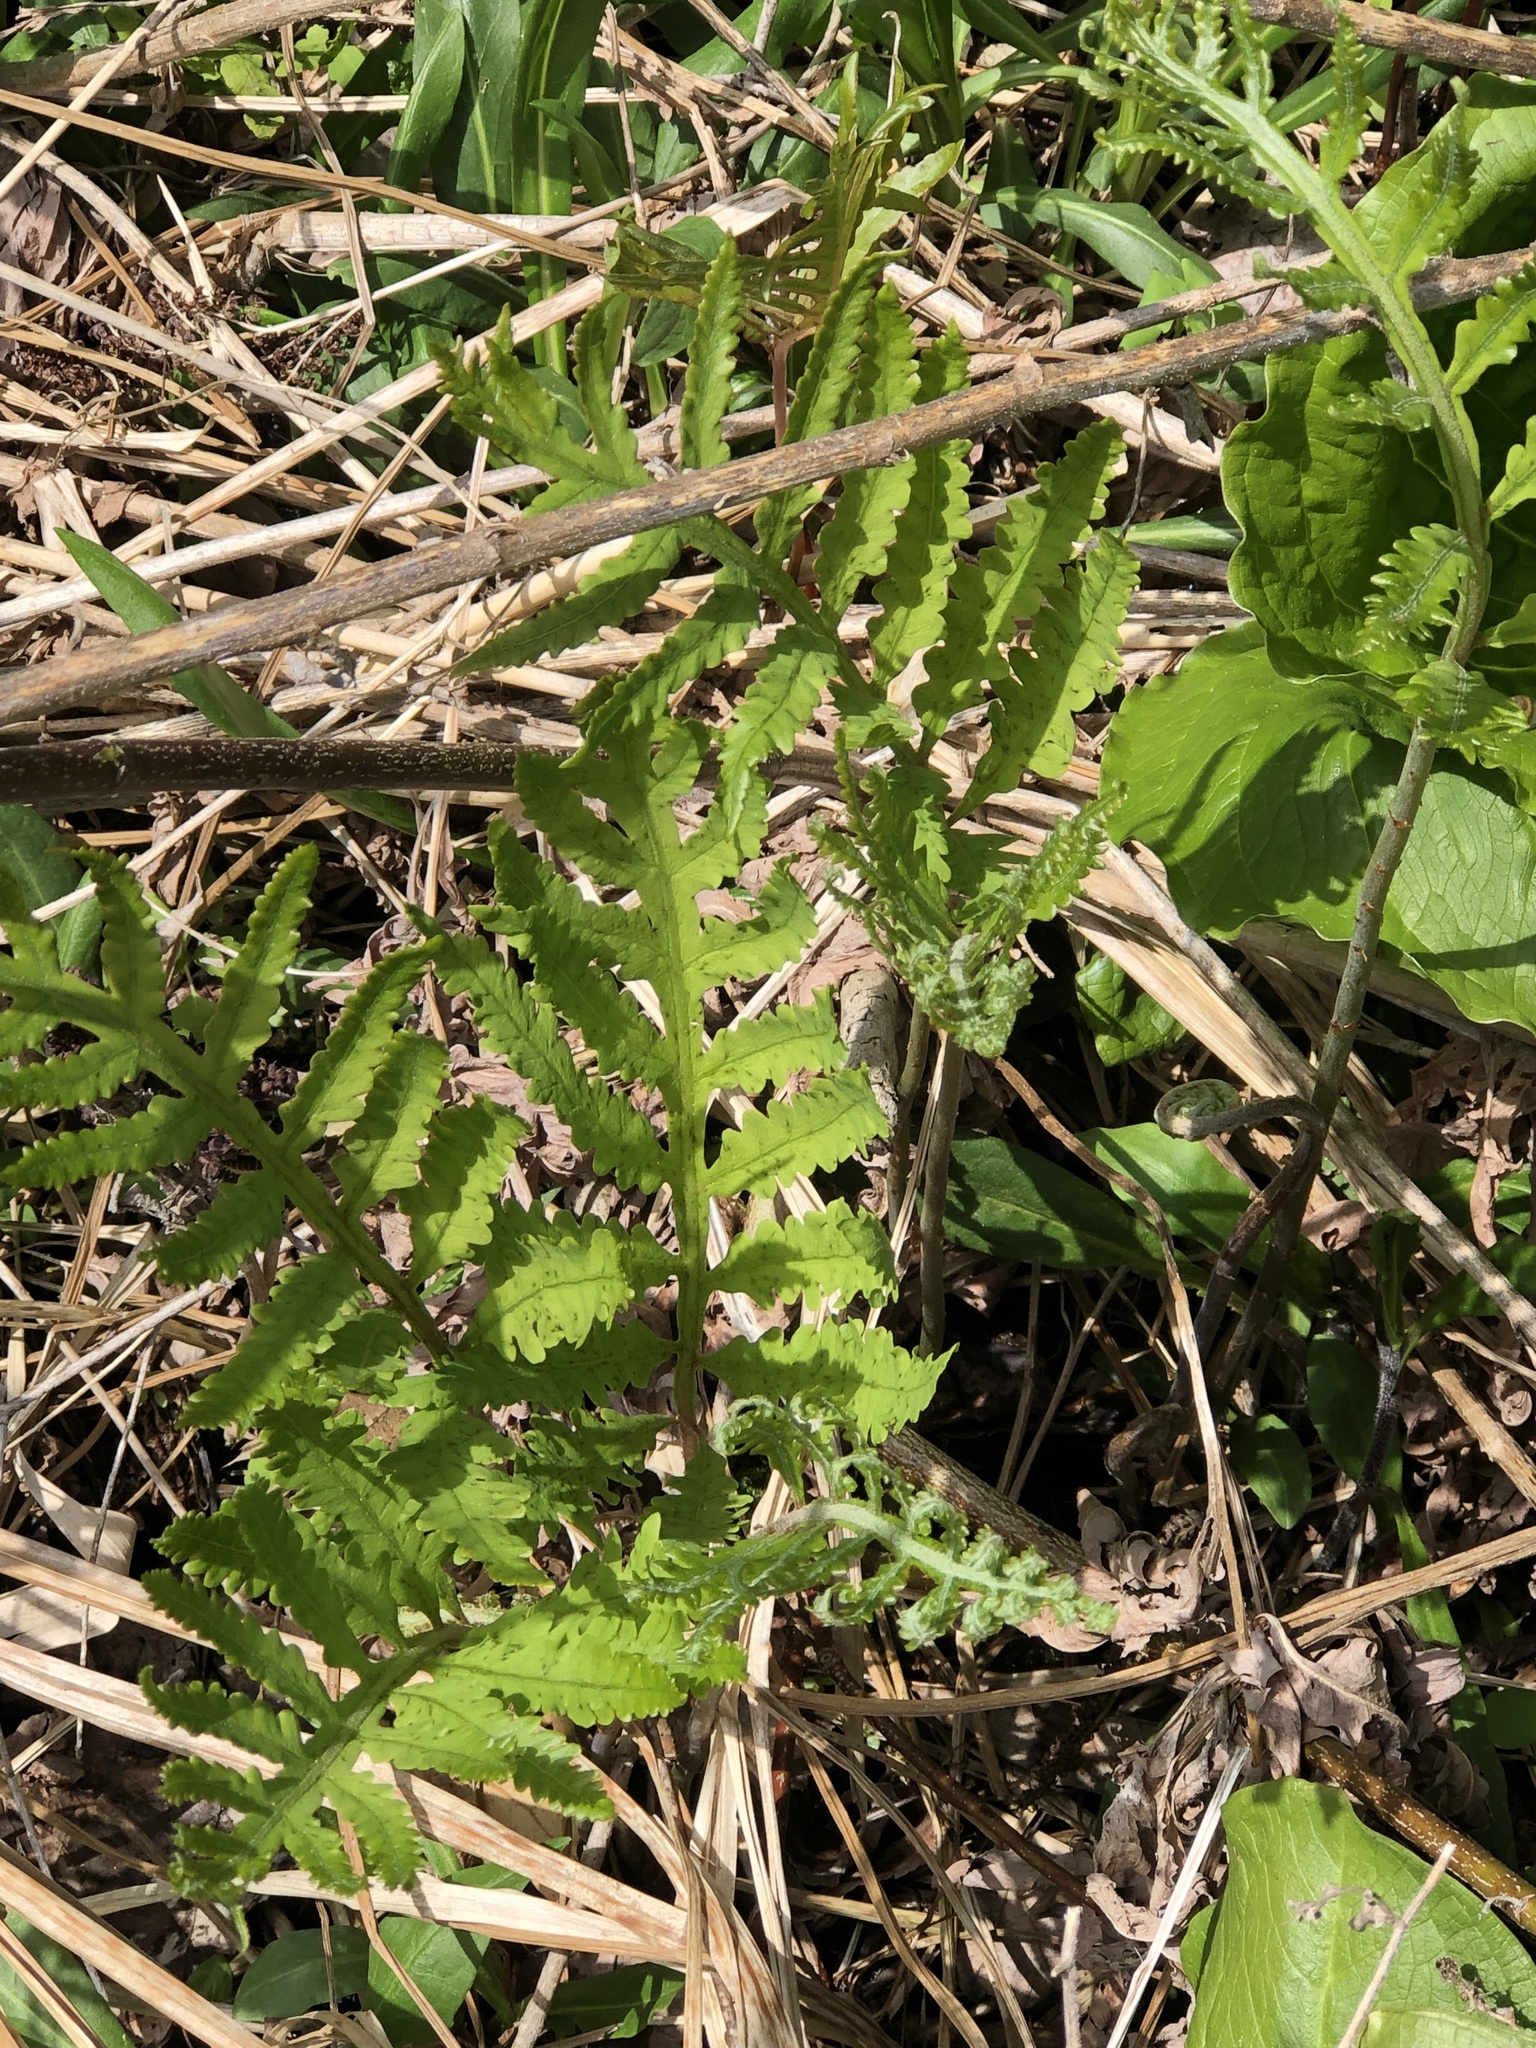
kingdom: Plantae
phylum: Tracheophyta
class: Polypodiopsida
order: Polypodiales
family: Onocleaceae
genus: Onoclea
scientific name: Onoclea sensibilis
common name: Sensitive fern
